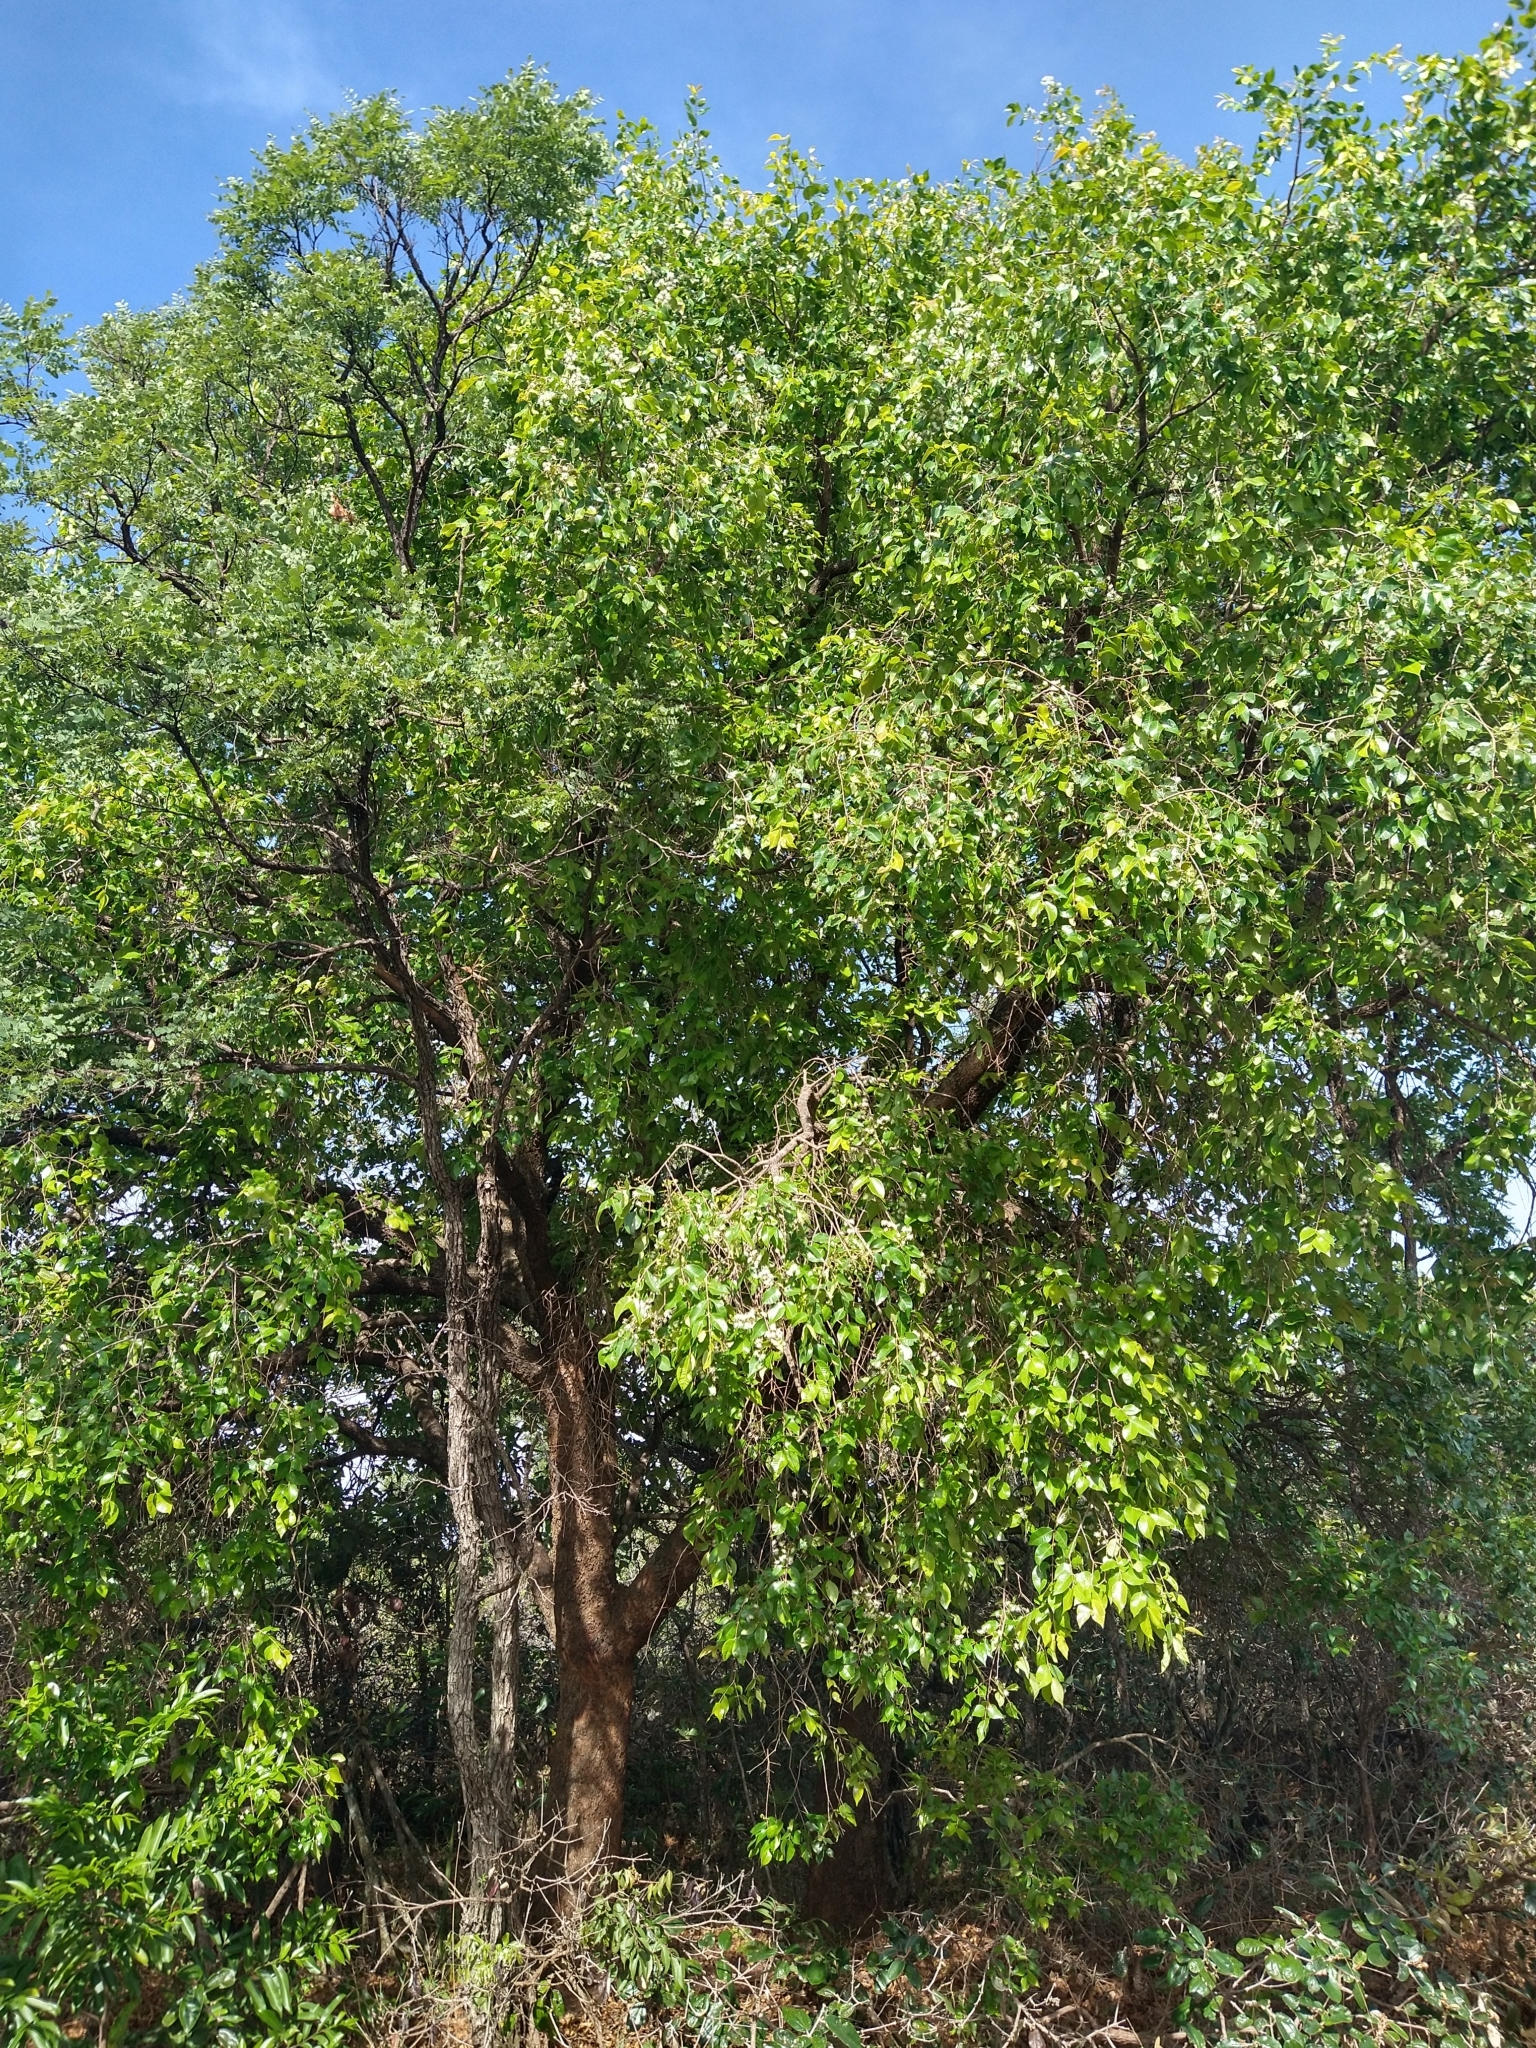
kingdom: Plantae
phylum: Tracheophyta
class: Magnoliopsida
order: Myrtales
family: Myrtaceae
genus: Blepharocalyx
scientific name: Blepharocalyx salicifolius
